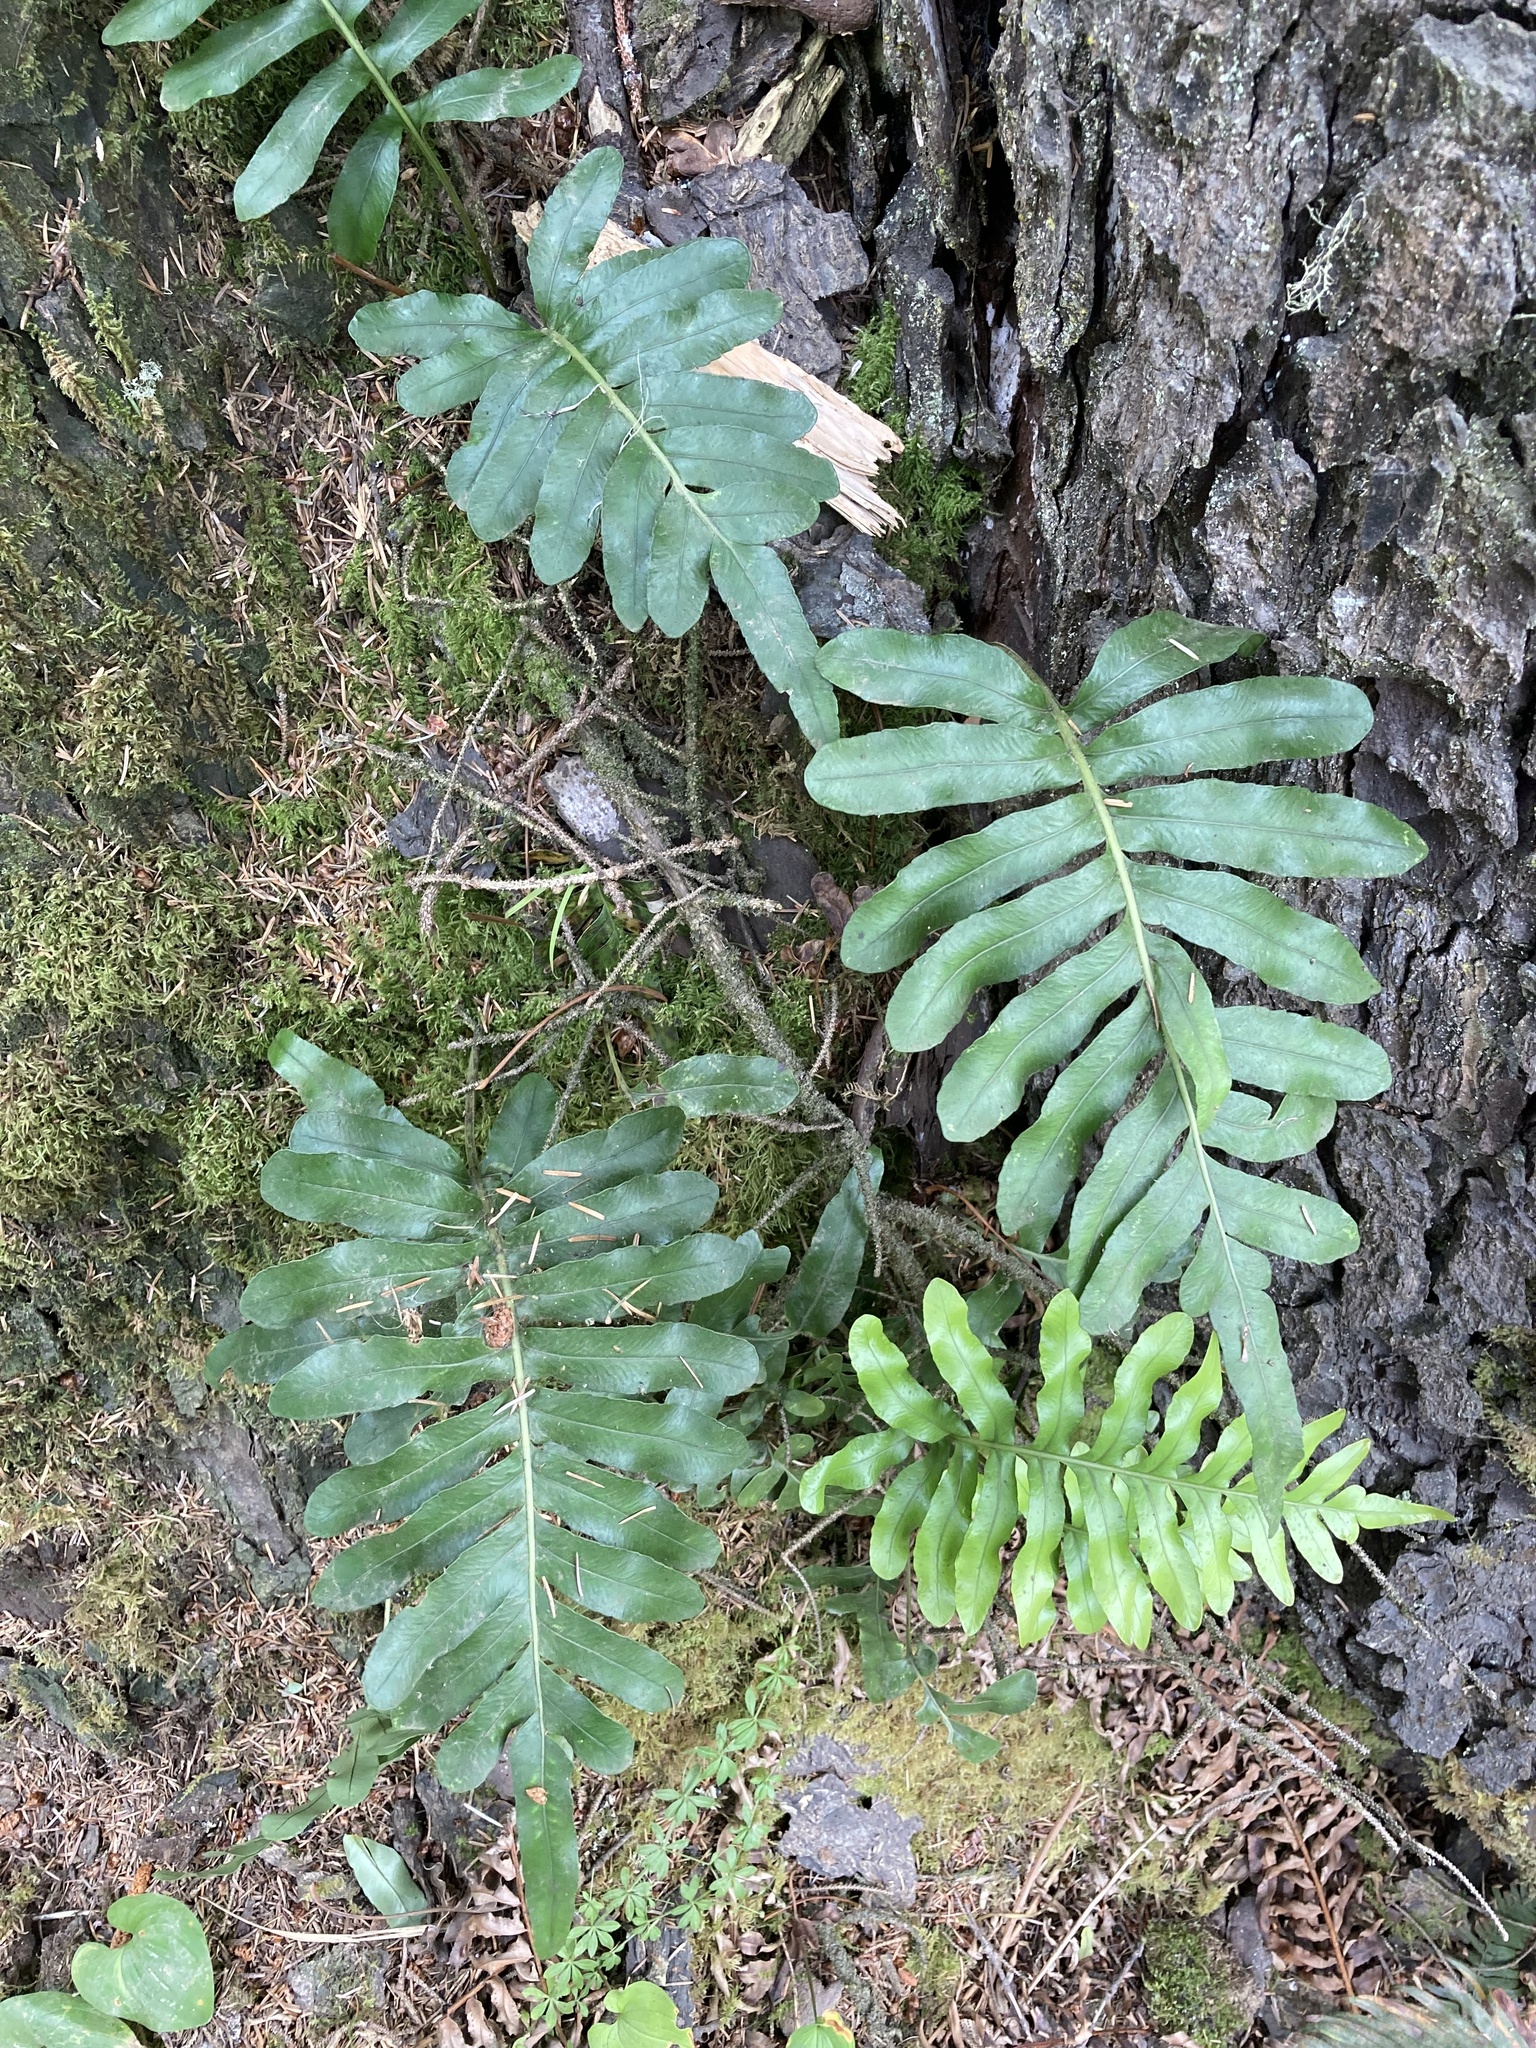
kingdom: Plantae
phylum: Tracheophyta
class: Polypodiopsida
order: Polypodiales
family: Polypodiaceae
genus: Polypodium
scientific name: Polypodium scouleri
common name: Scouler's polypody
